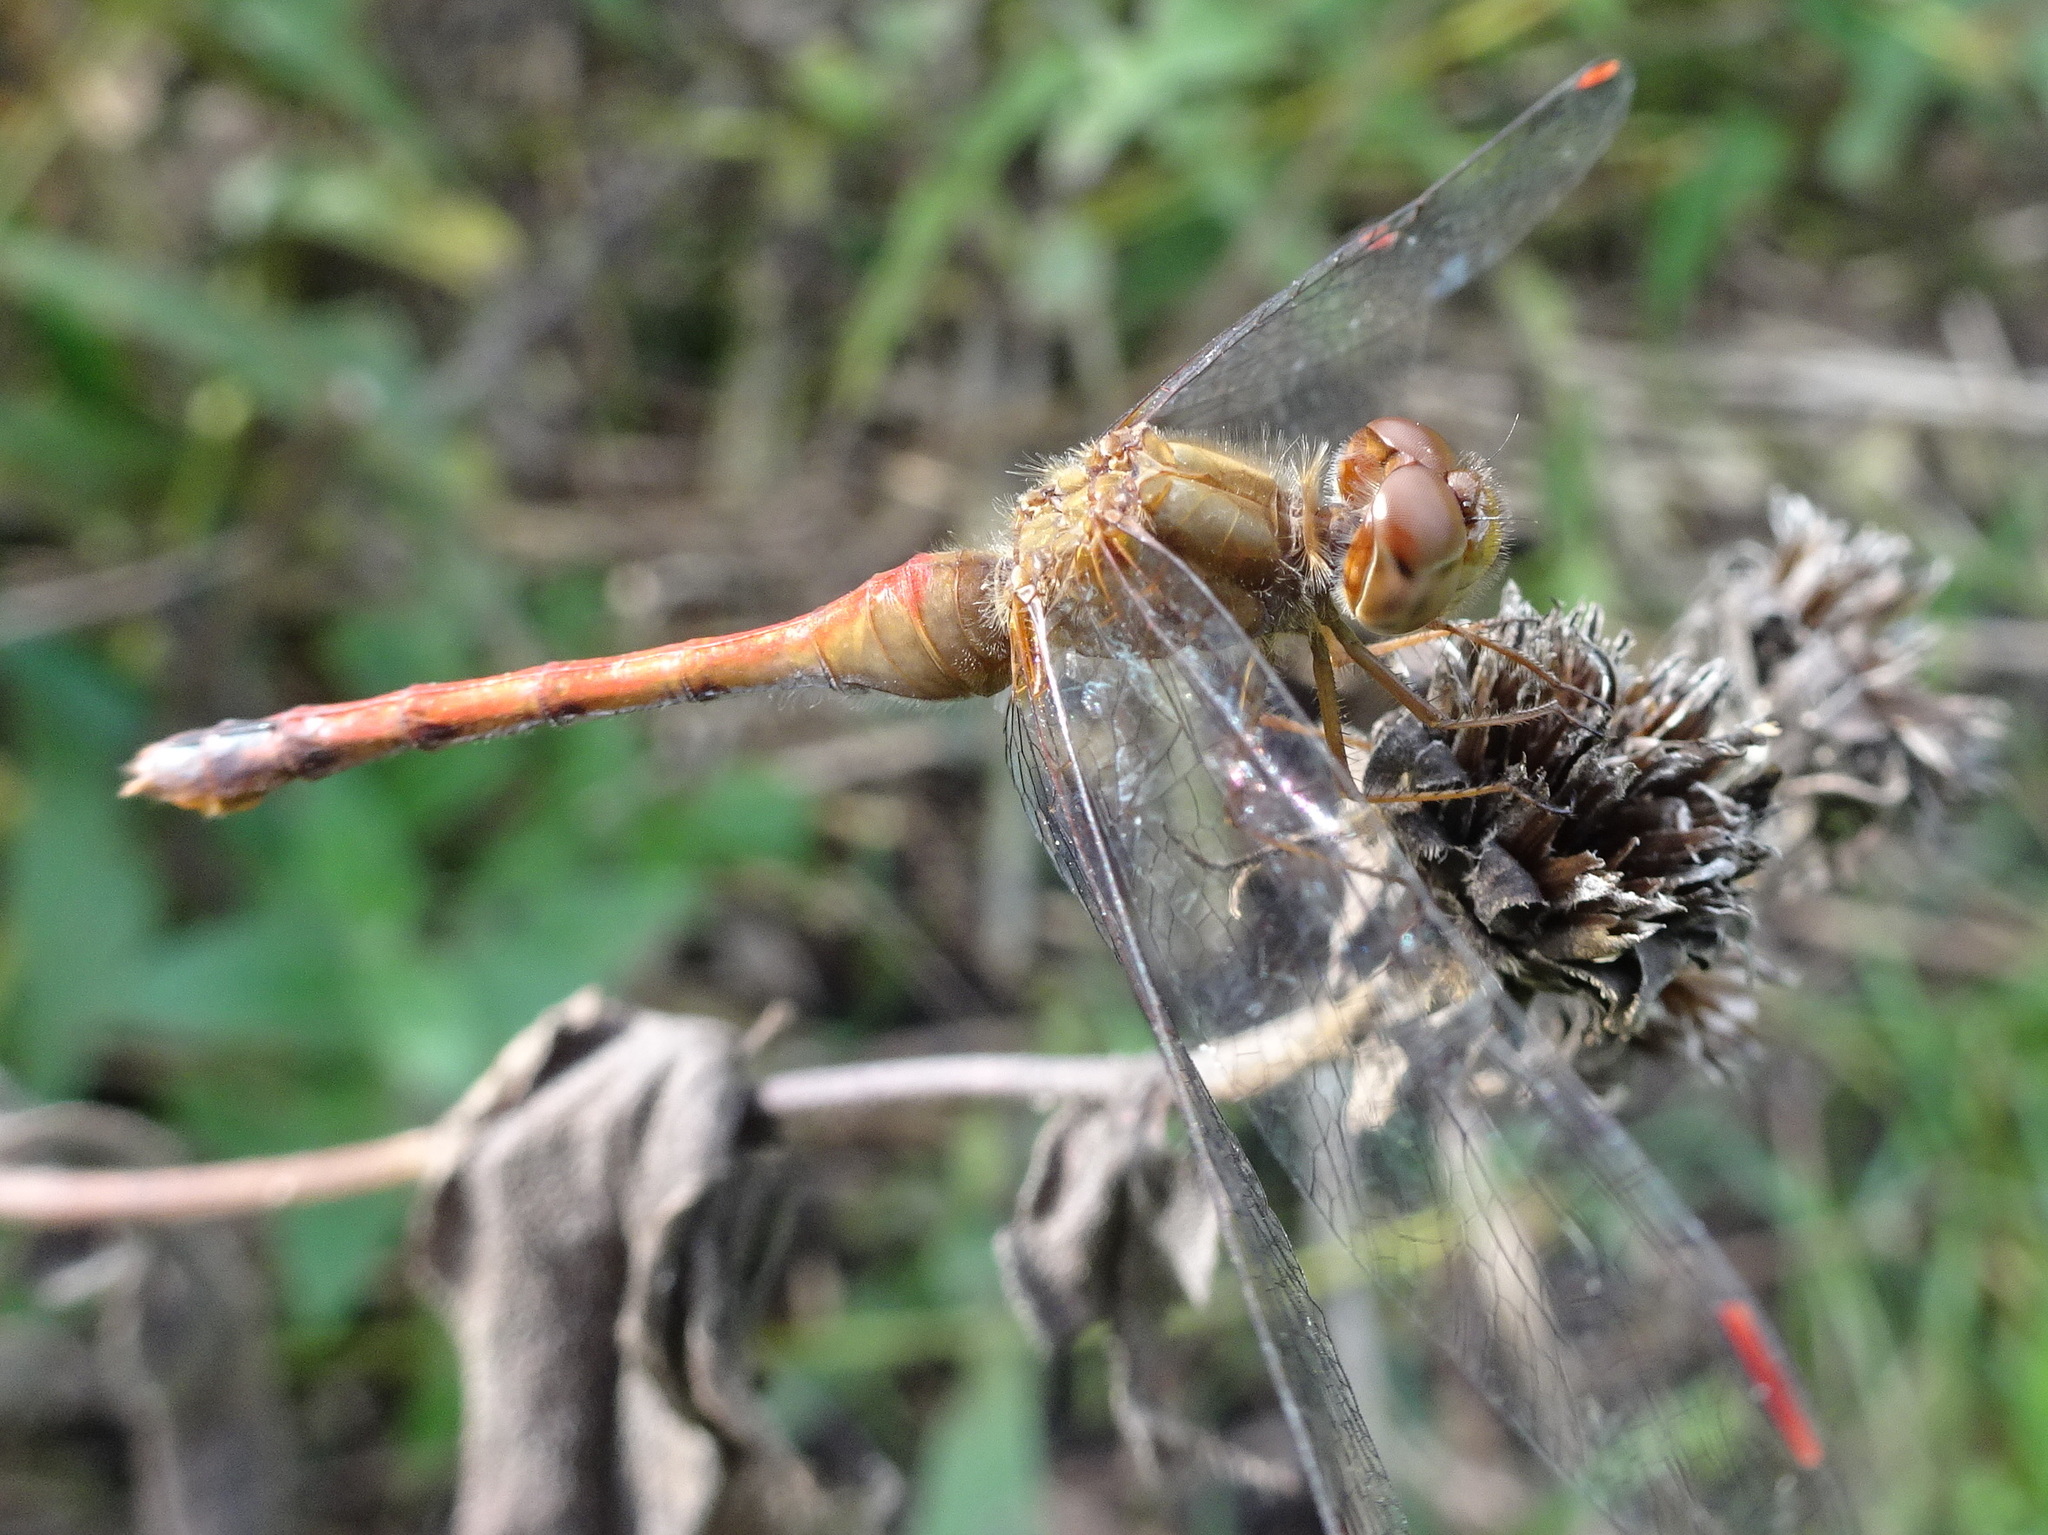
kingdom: Animalia
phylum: Arthropoda
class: Insecta
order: Odonata
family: Libellulidae
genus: Sympetrum
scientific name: Sympetrum vicinum
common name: Autumn meadowhawk
